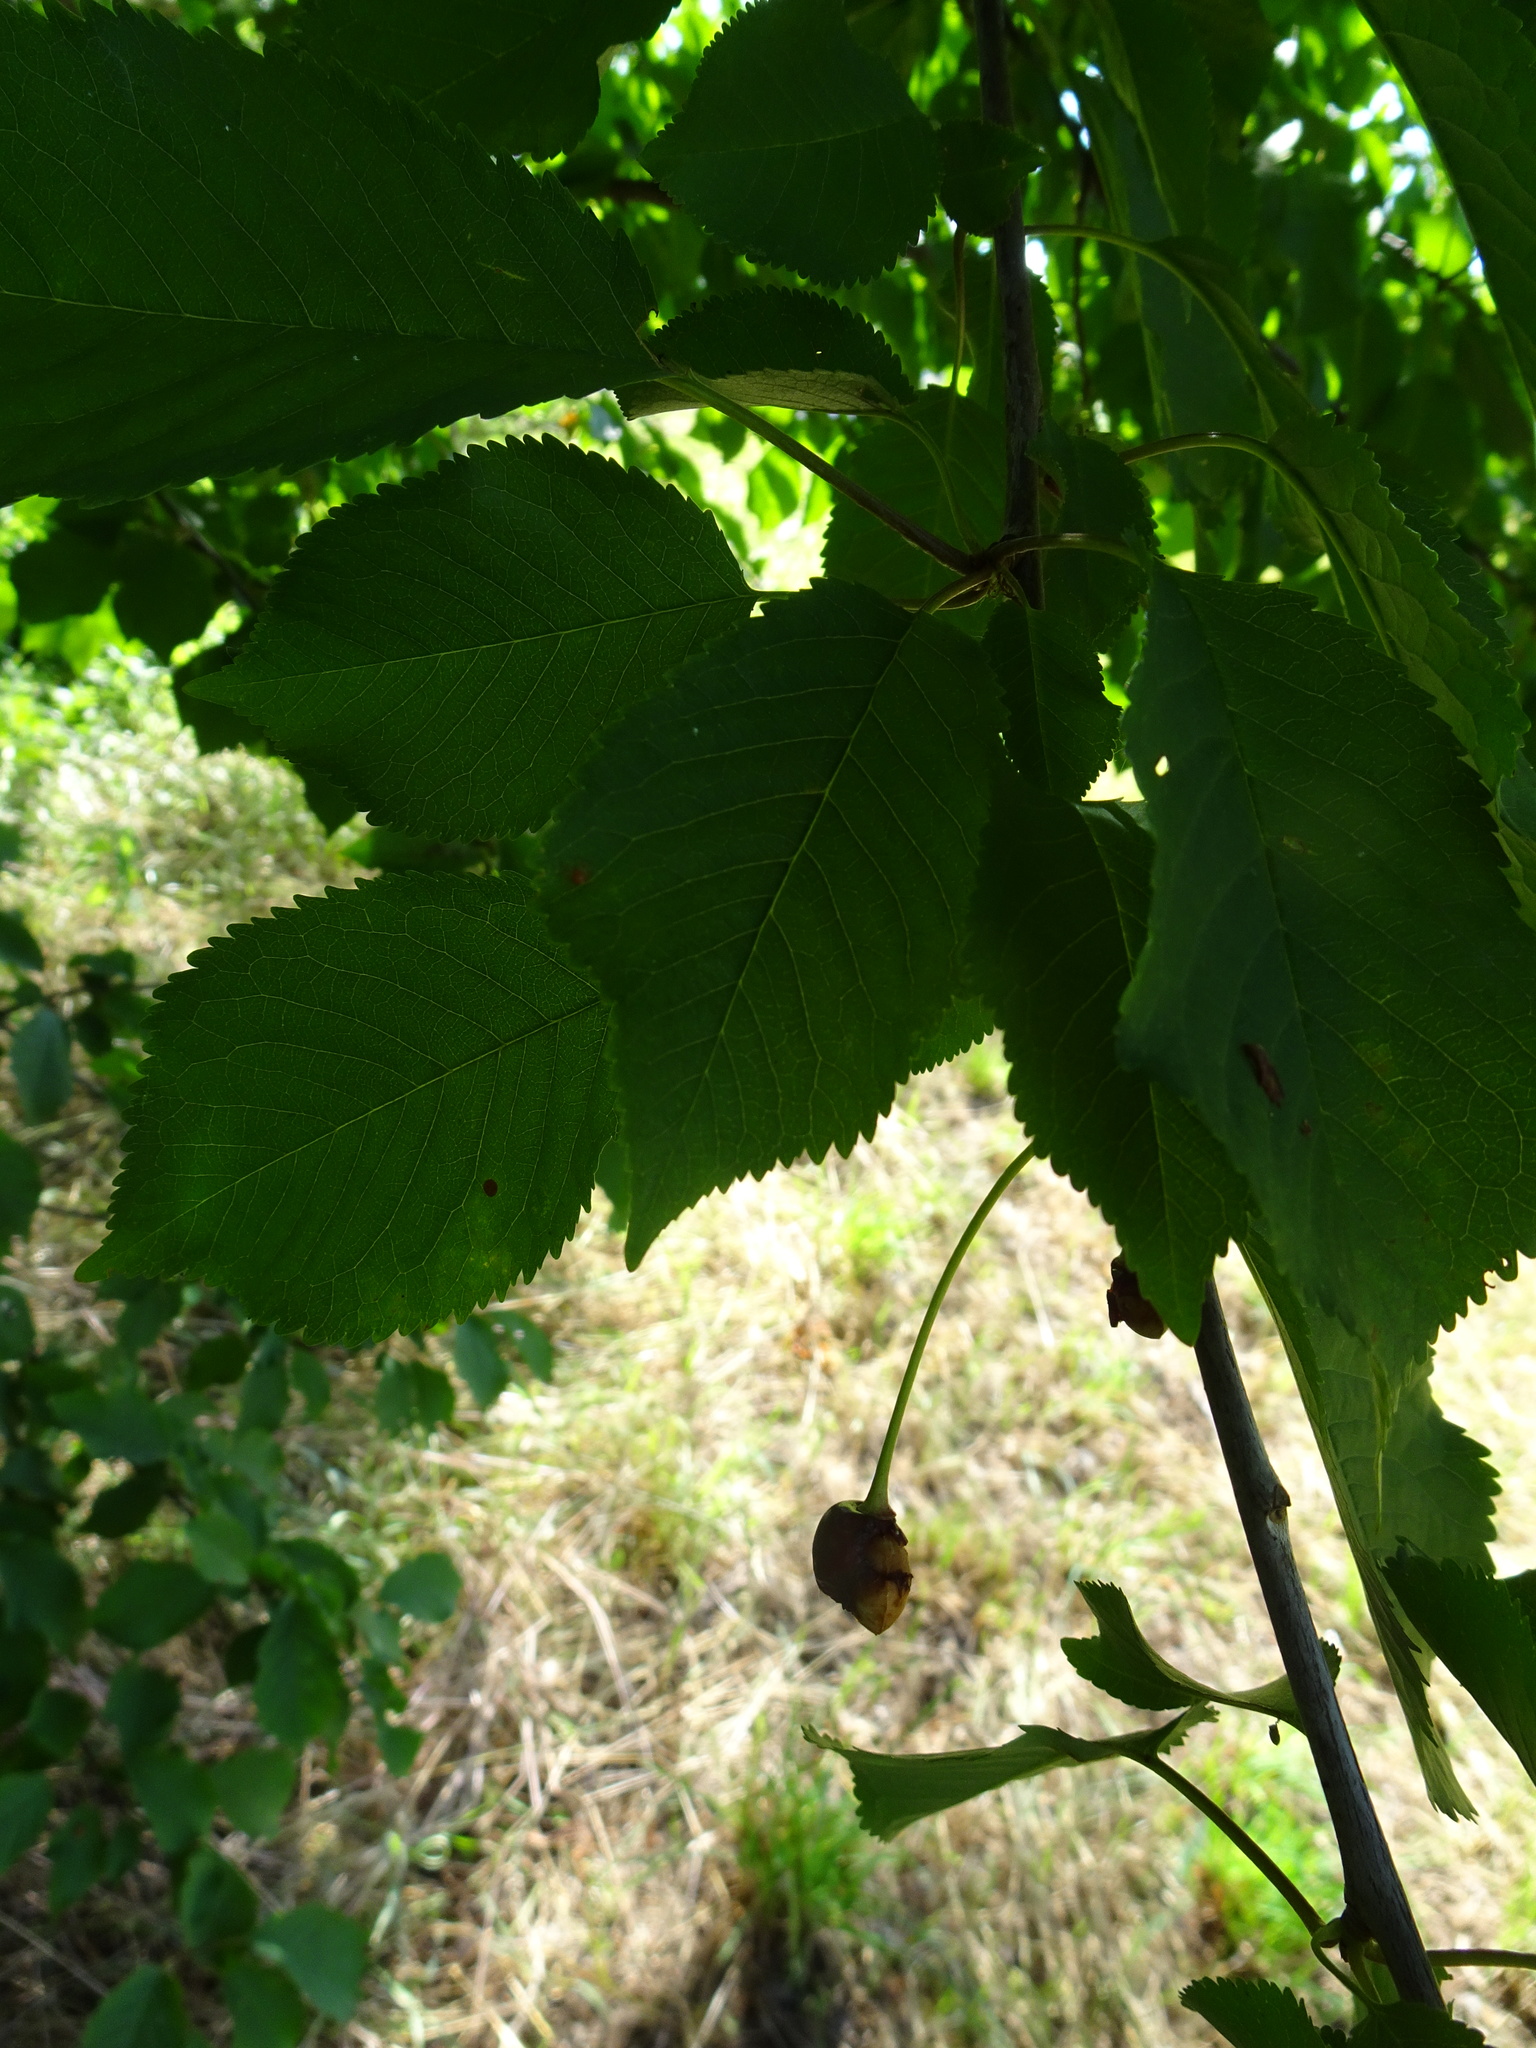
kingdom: Plantae
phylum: Tracheophyta
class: Magnoliopsida
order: Rosales
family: Rosaceae
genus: Prunus
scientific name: Prunus avium
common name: Sweet cherry
